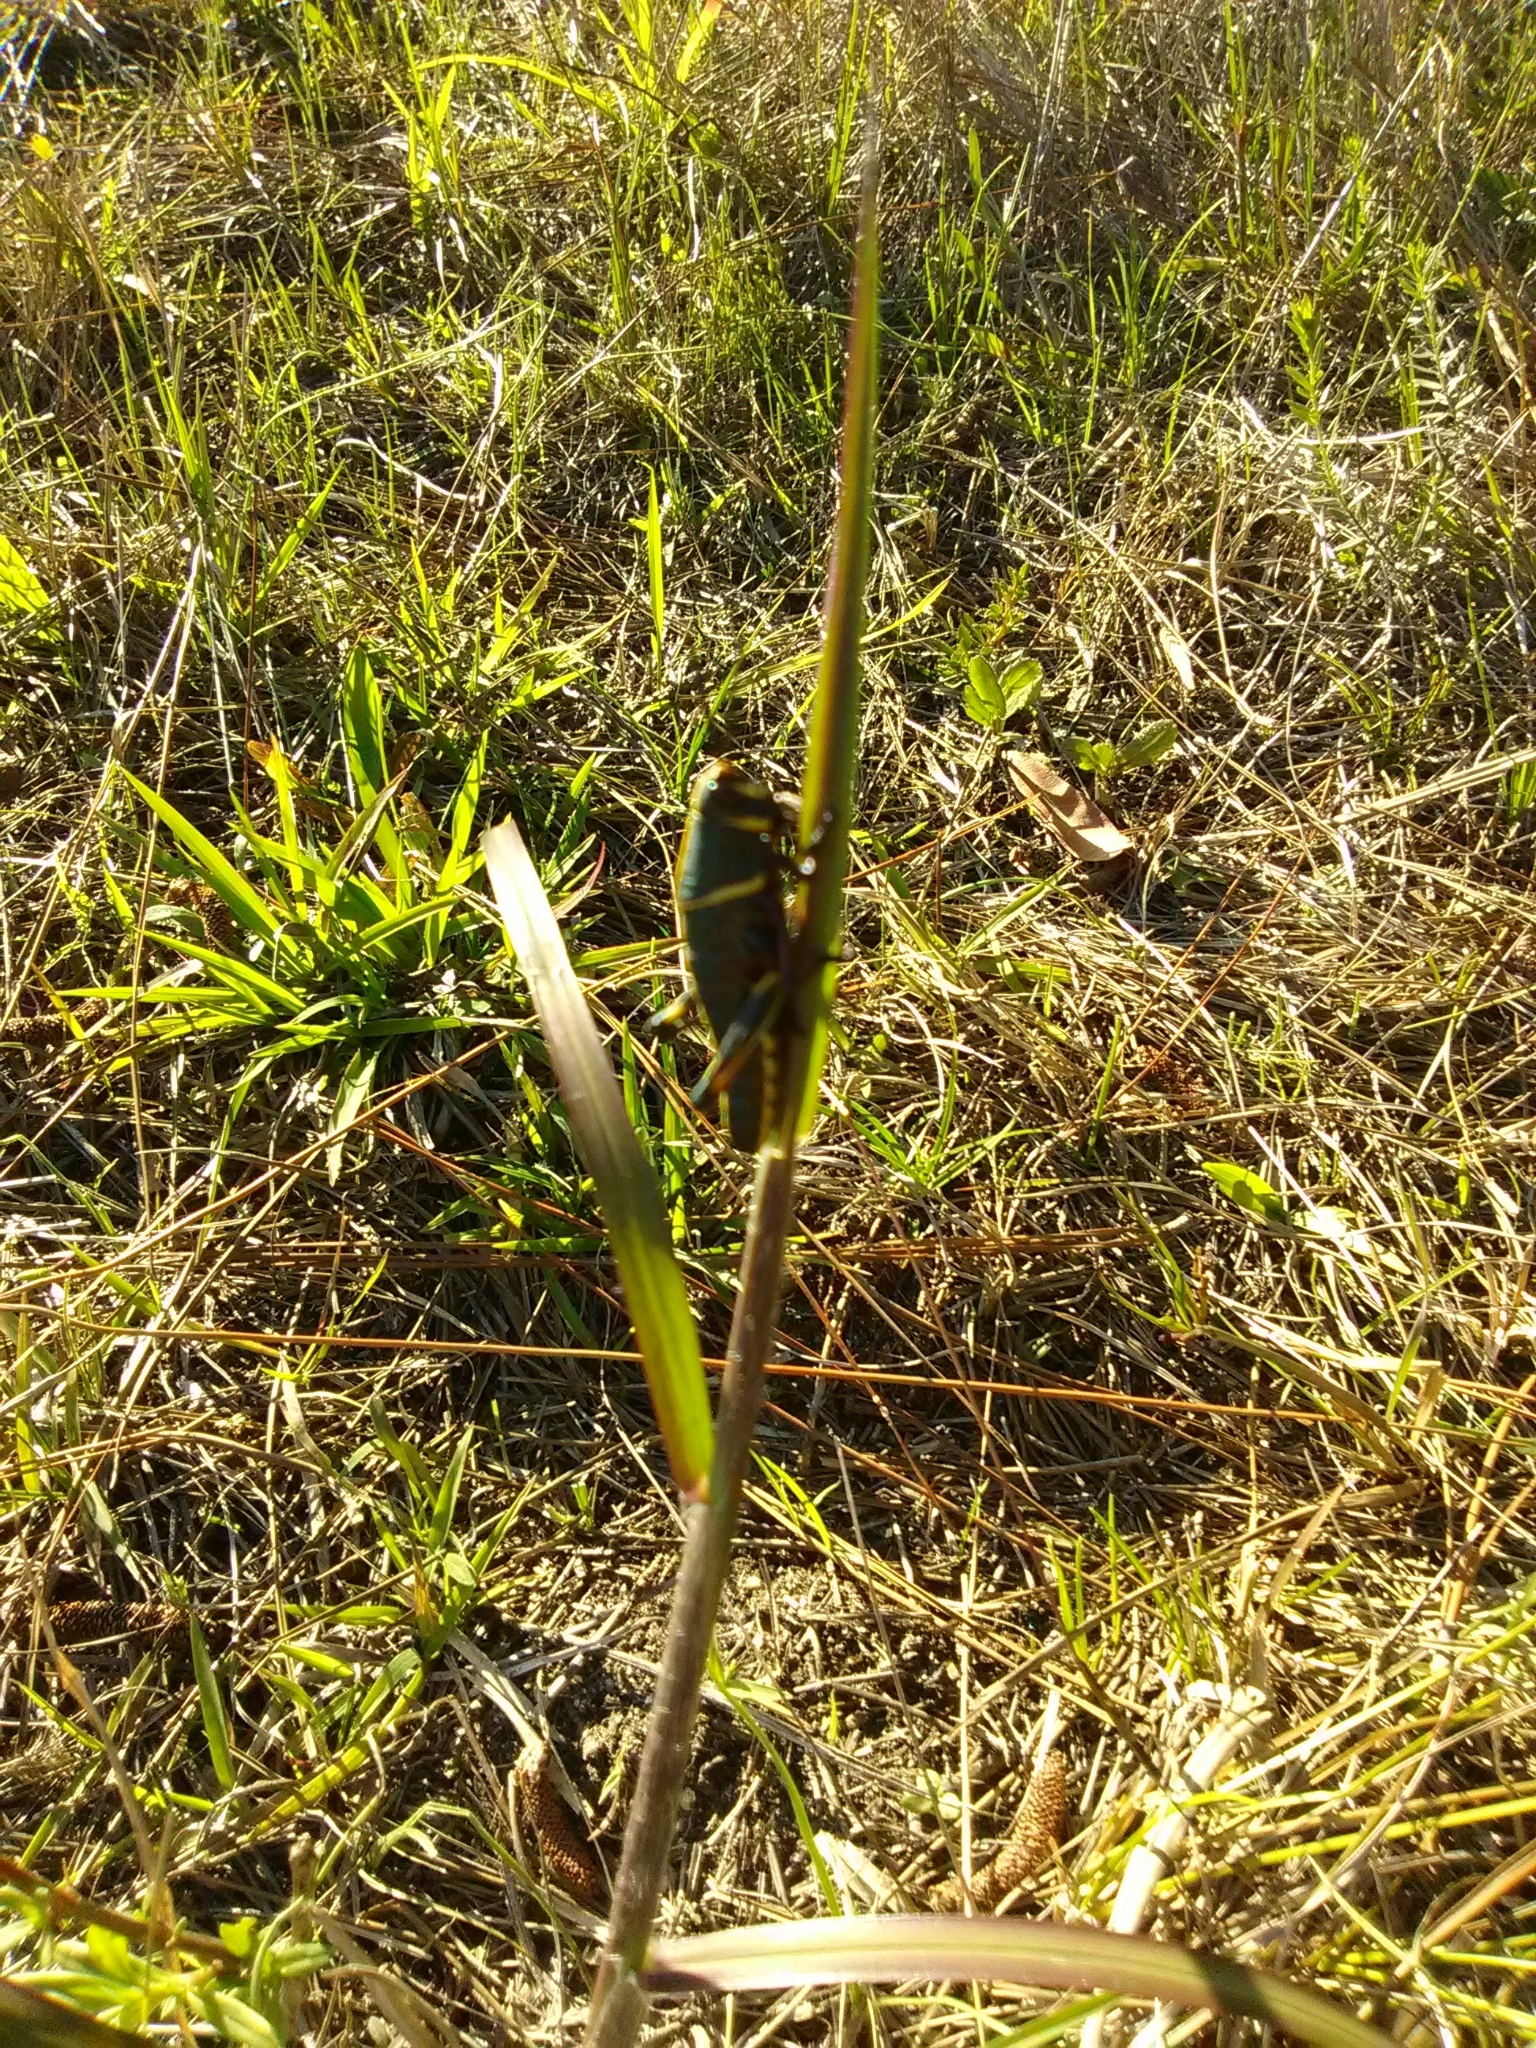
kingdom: Animalia
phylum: Arthropoda
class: Insecta
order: Orthoptera
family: Romaleidae
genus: Romalea
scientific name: Romalea microptera
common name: Eastern lubber grasshopper
